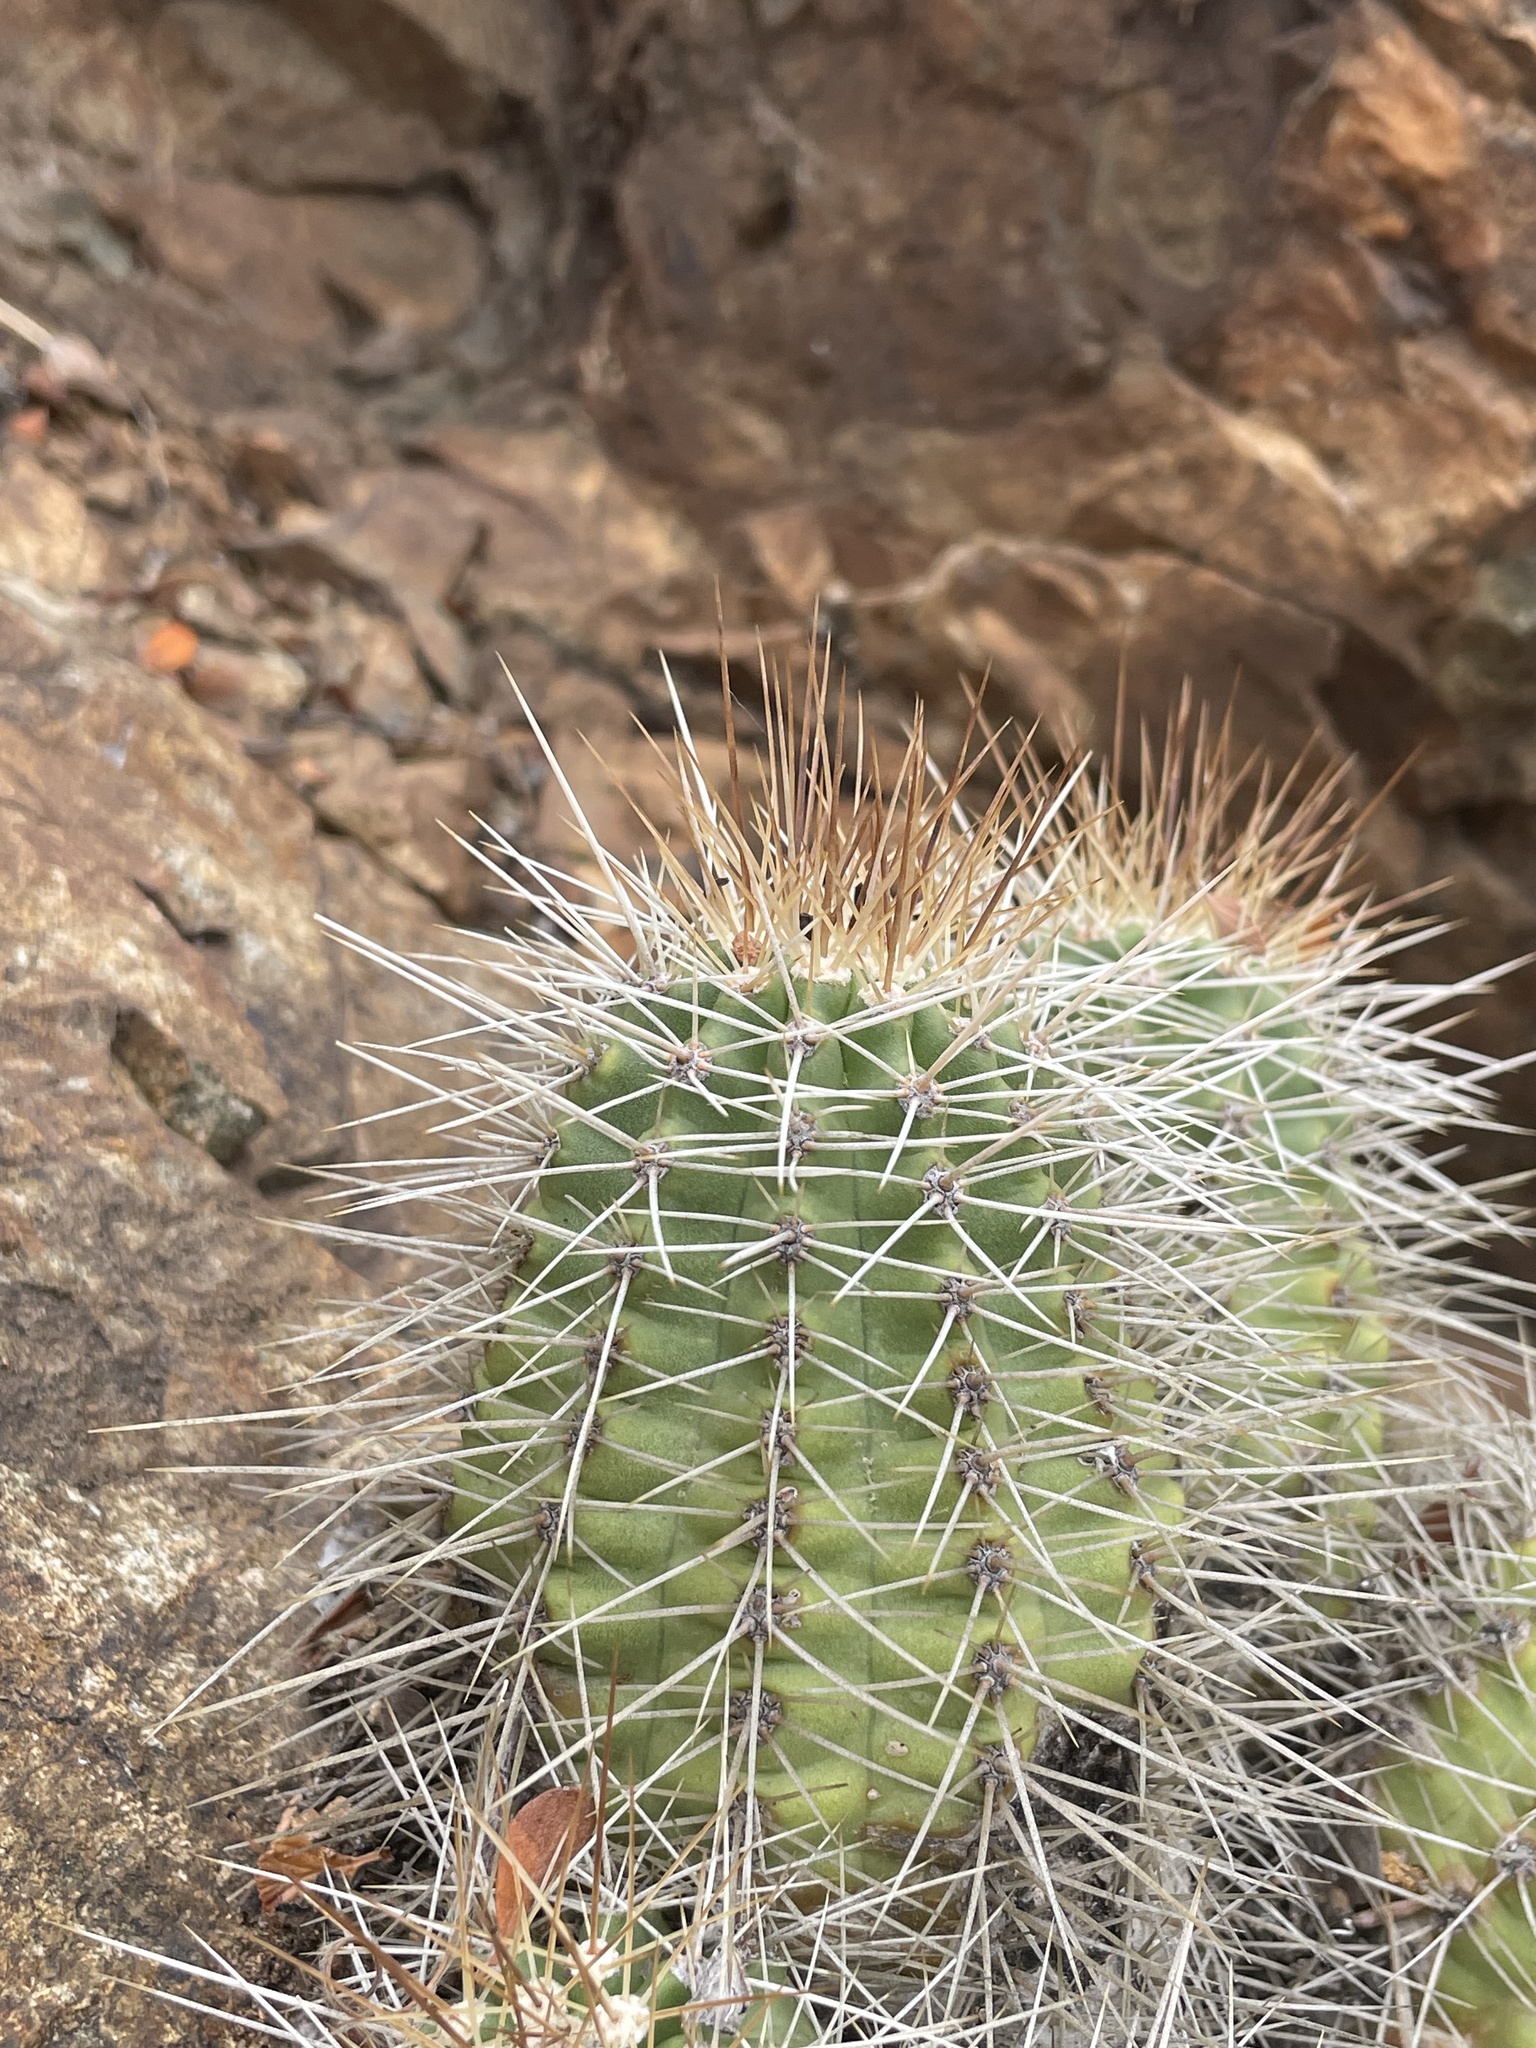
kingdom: Plantae
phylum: Tracheophyta
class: Magnoliopsida
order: Caryophyllales
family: Cactaceae
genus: Echinocereus
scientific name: Echinocereus yavapaiensis
